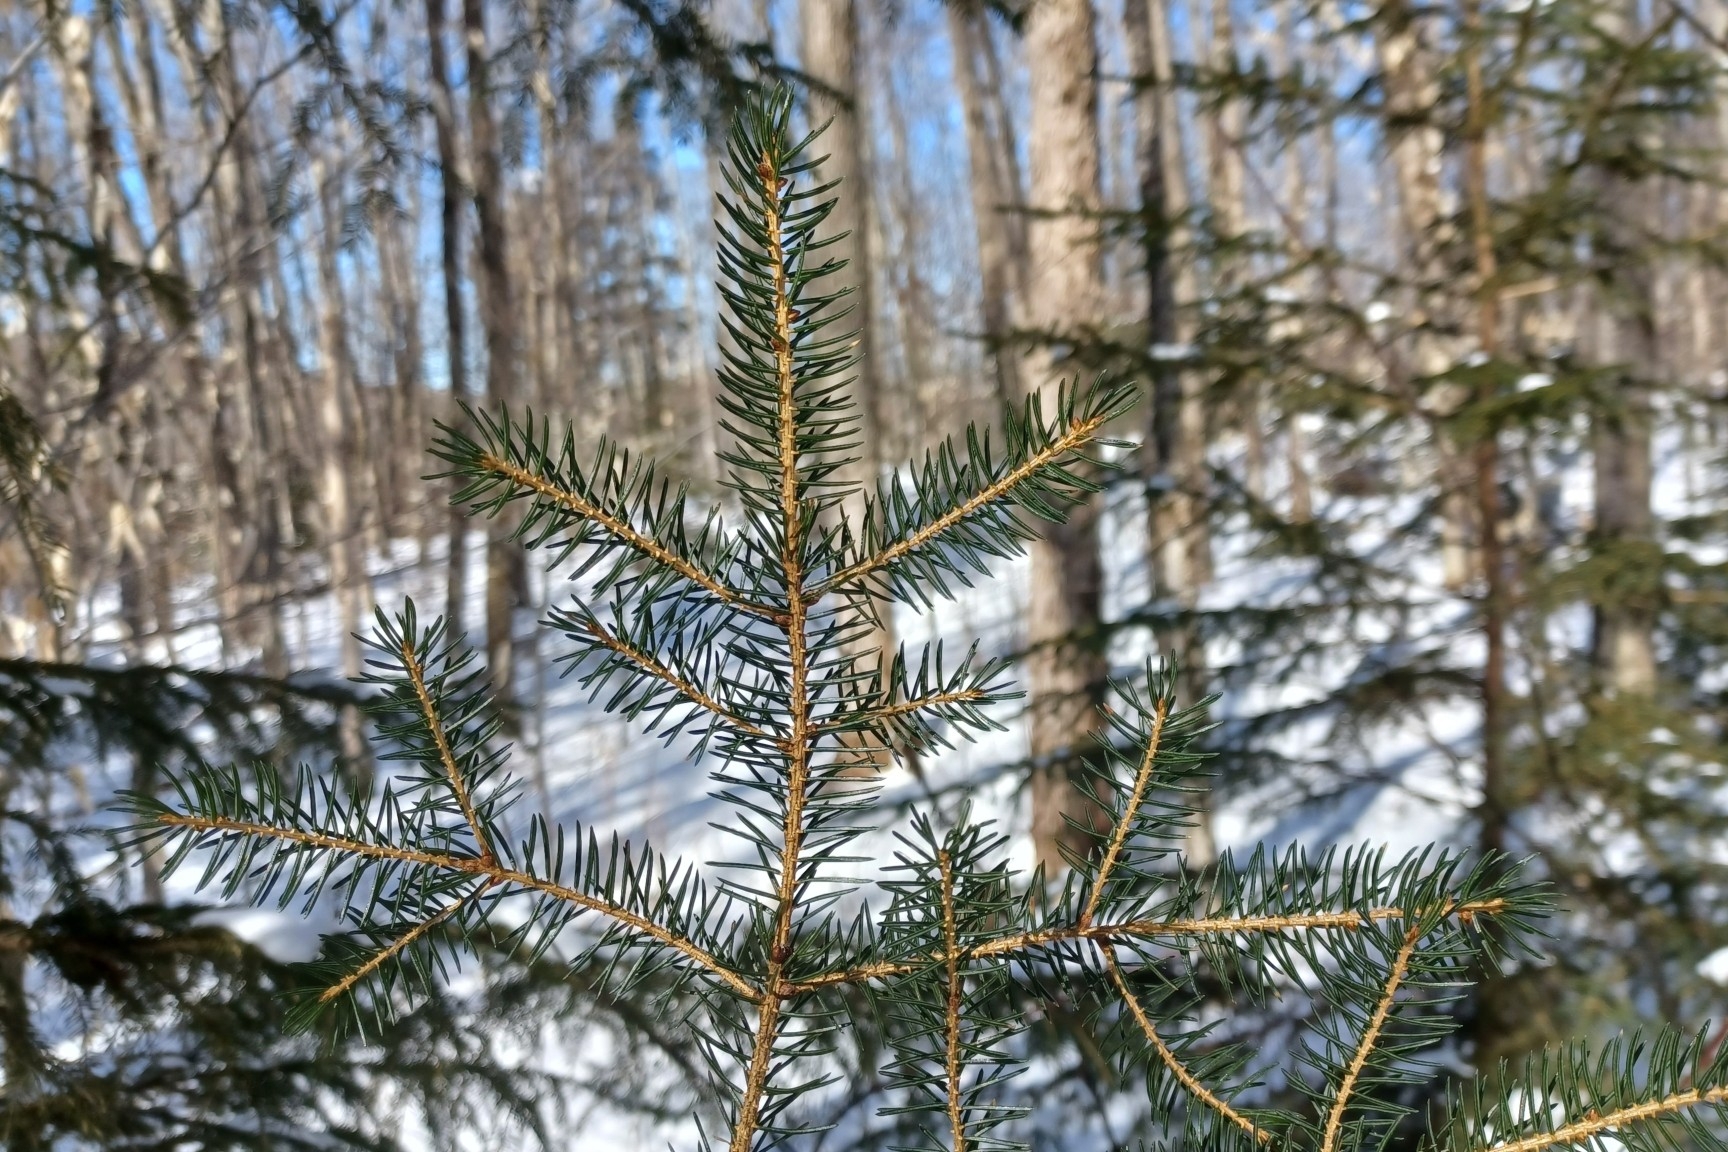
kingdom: Plantae
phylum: Tracheophyta
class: Pinopsida
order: Pinales
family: Pinaceae
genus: Picea
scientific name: Picea rubens
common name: Red spruce
